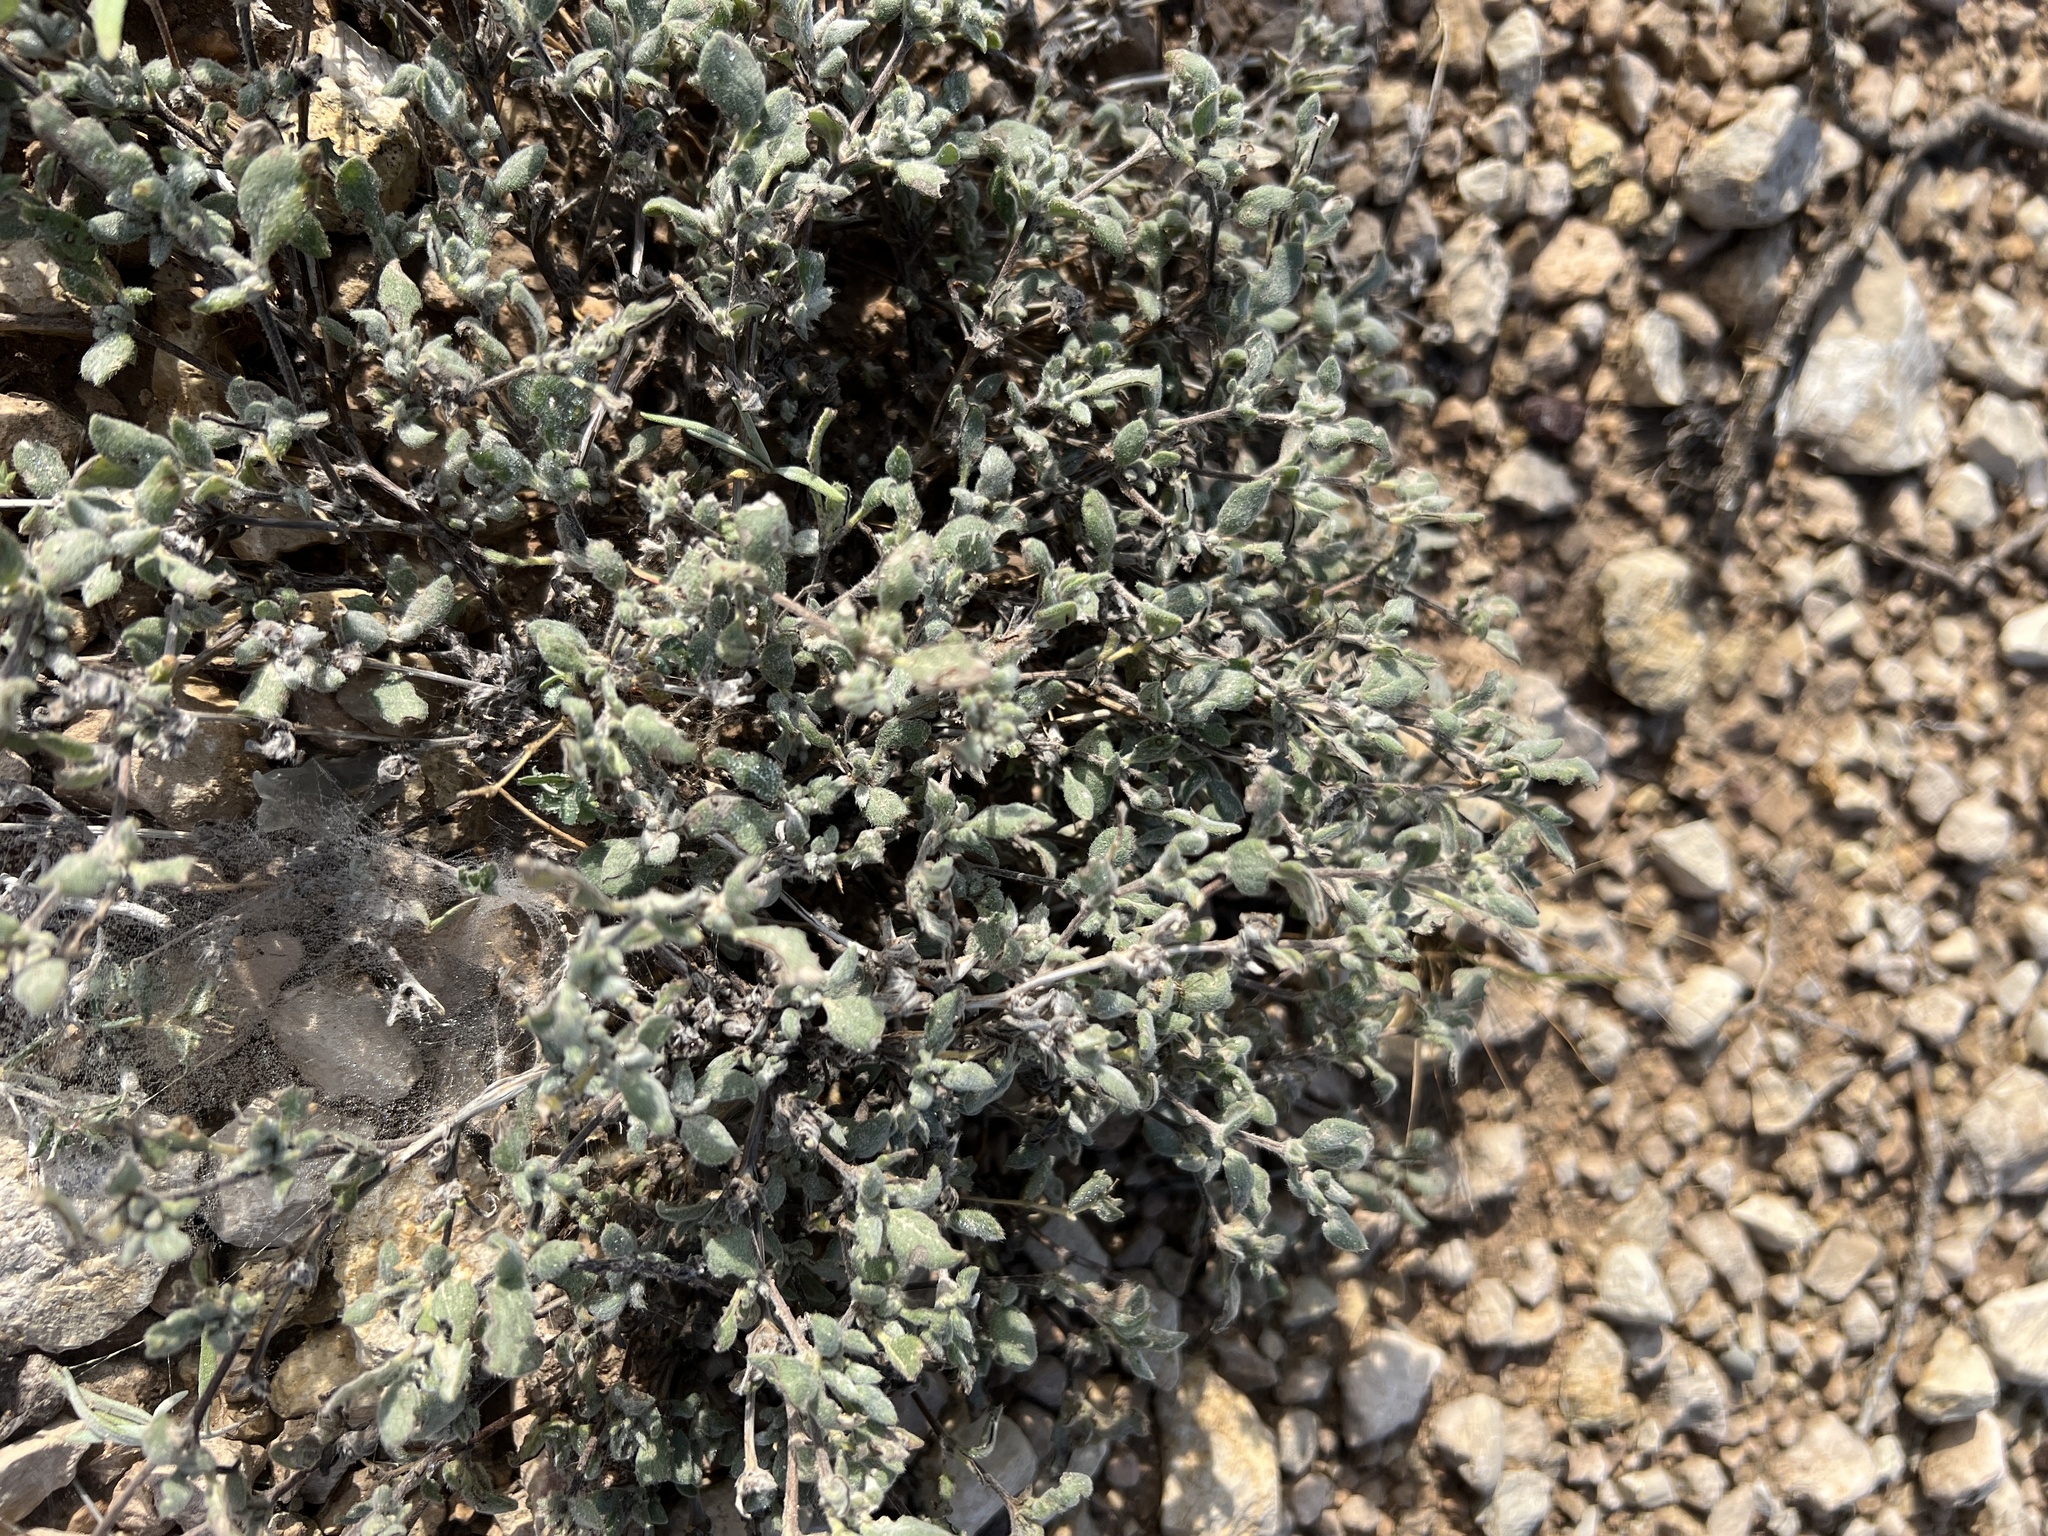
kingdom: Plantae
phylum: Tracheophyta
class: Magnoliopsida
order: Boraginales
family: Ehretiaceae
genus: Tiquilia
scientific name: Tiquilia canescens
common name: Hairy tiquilia
